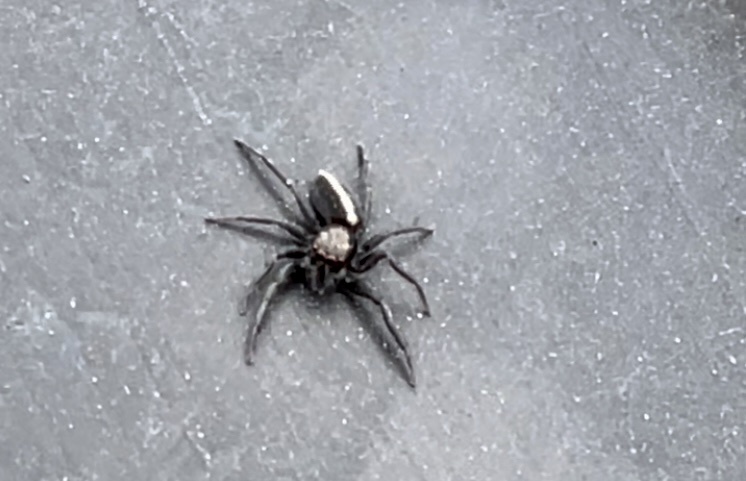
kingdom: Animalia
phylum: Arthropoda
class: Arachnida
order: Araneae
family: Salticidae
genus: Menemerus
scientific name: Menemerus dimidius
